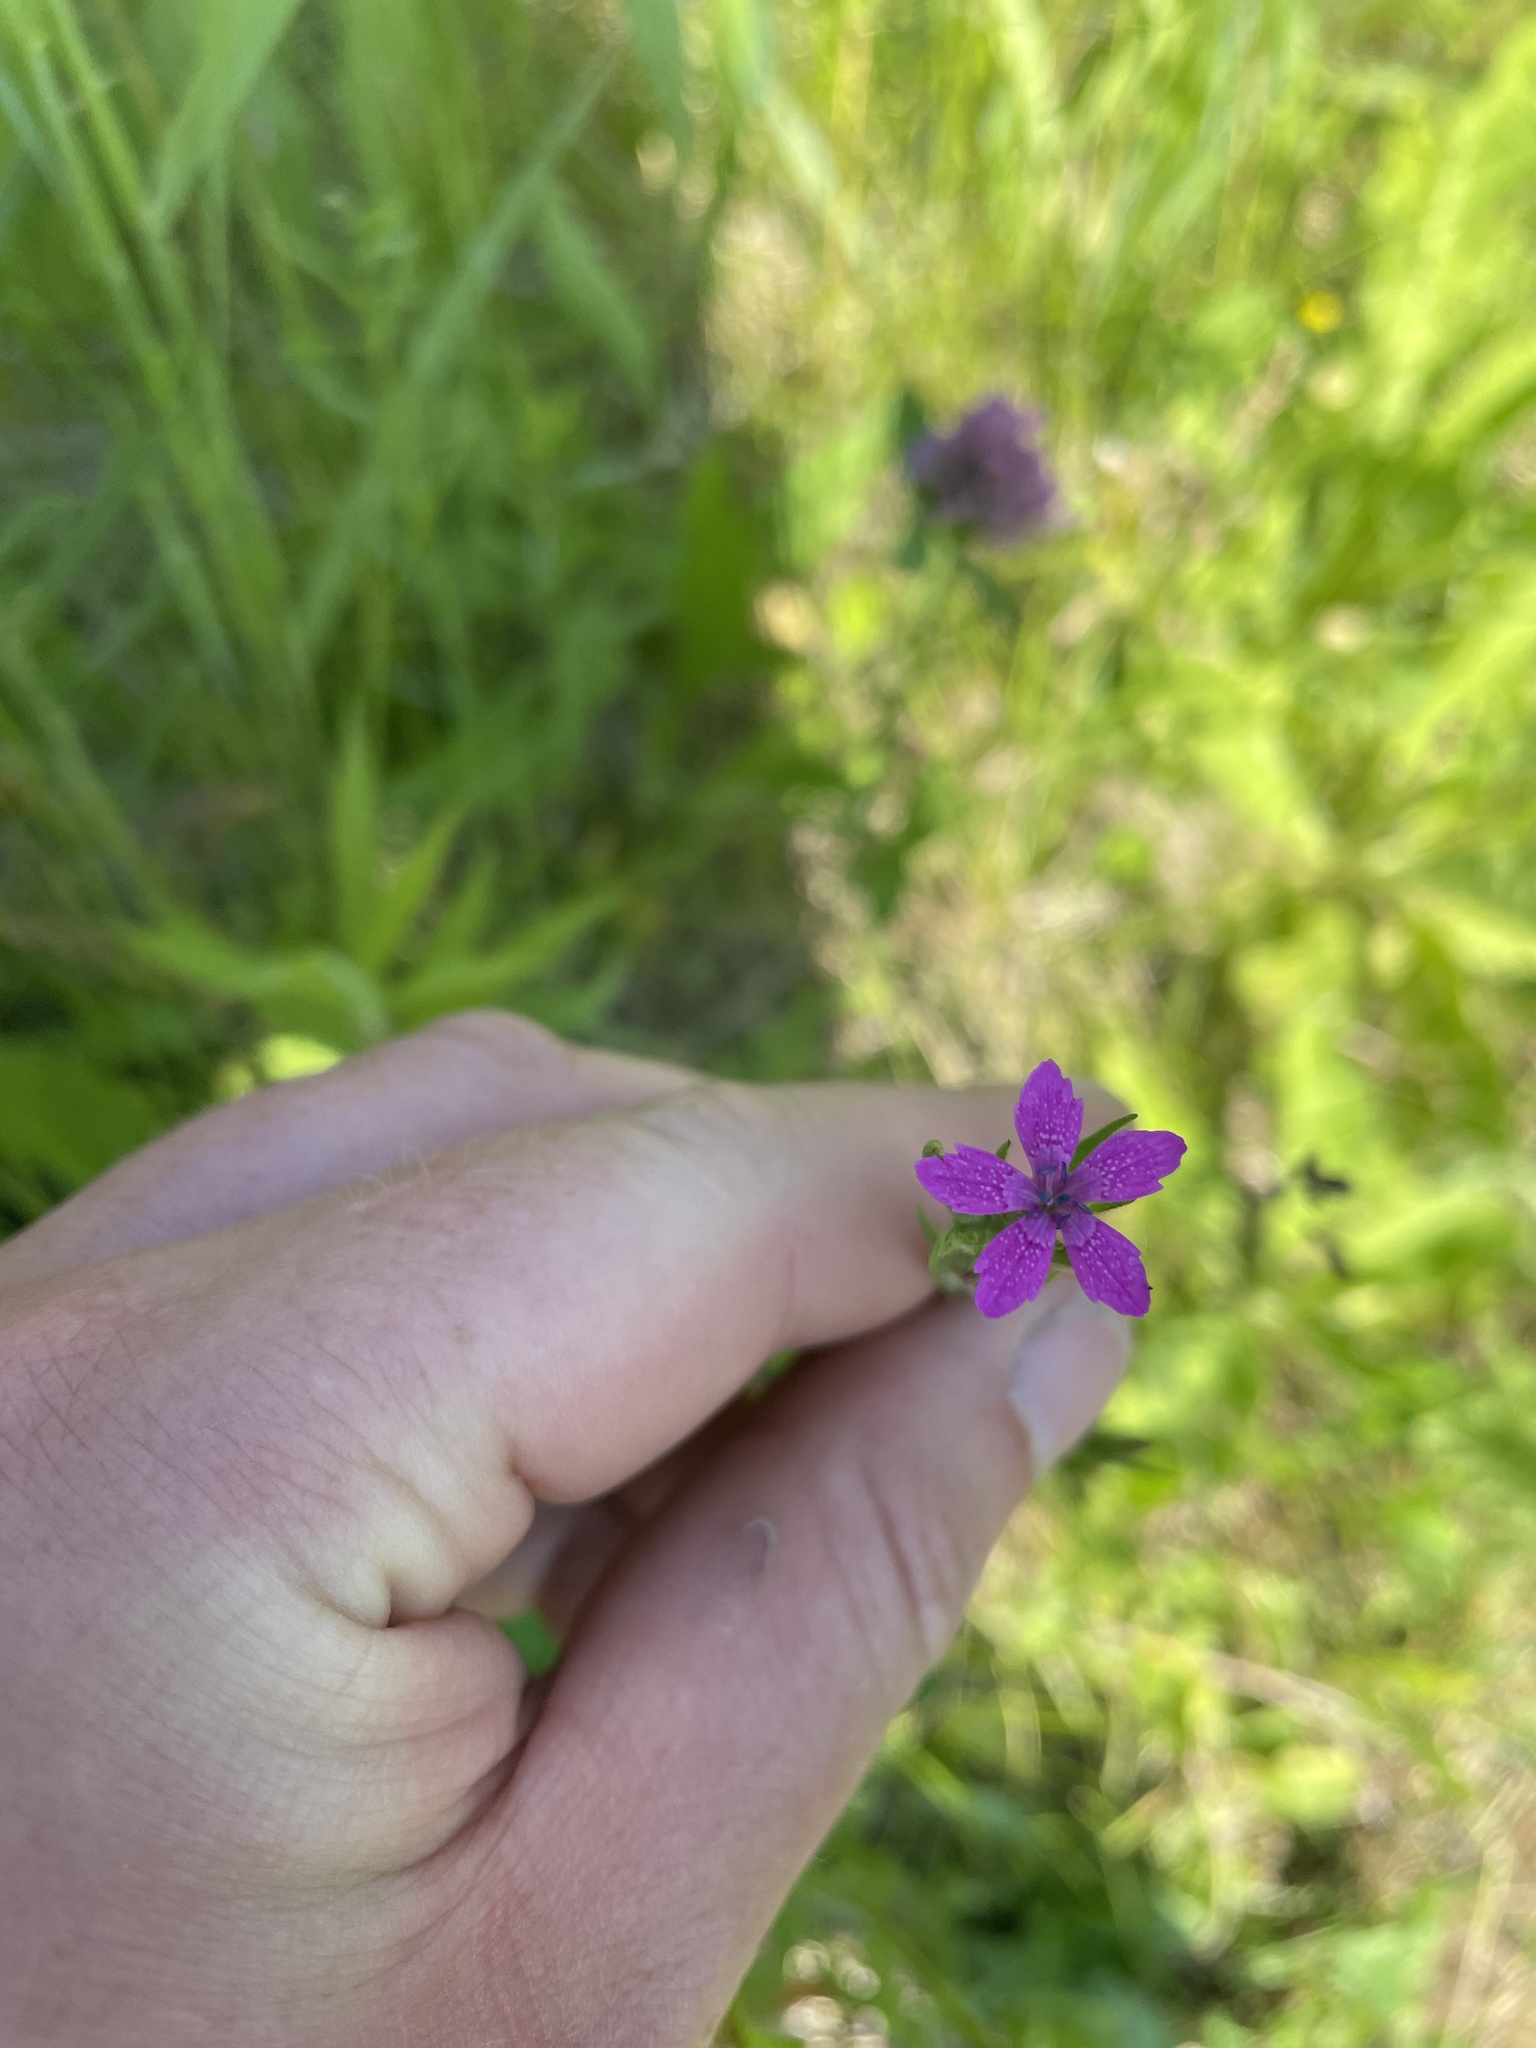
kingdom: Plantae
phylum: Tracheophyta
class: Magnoliopsida
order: Caryophyllales
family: Caryophyllaceae
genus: Dianthus
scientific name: Dianthus armeria
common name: Deptford pink
